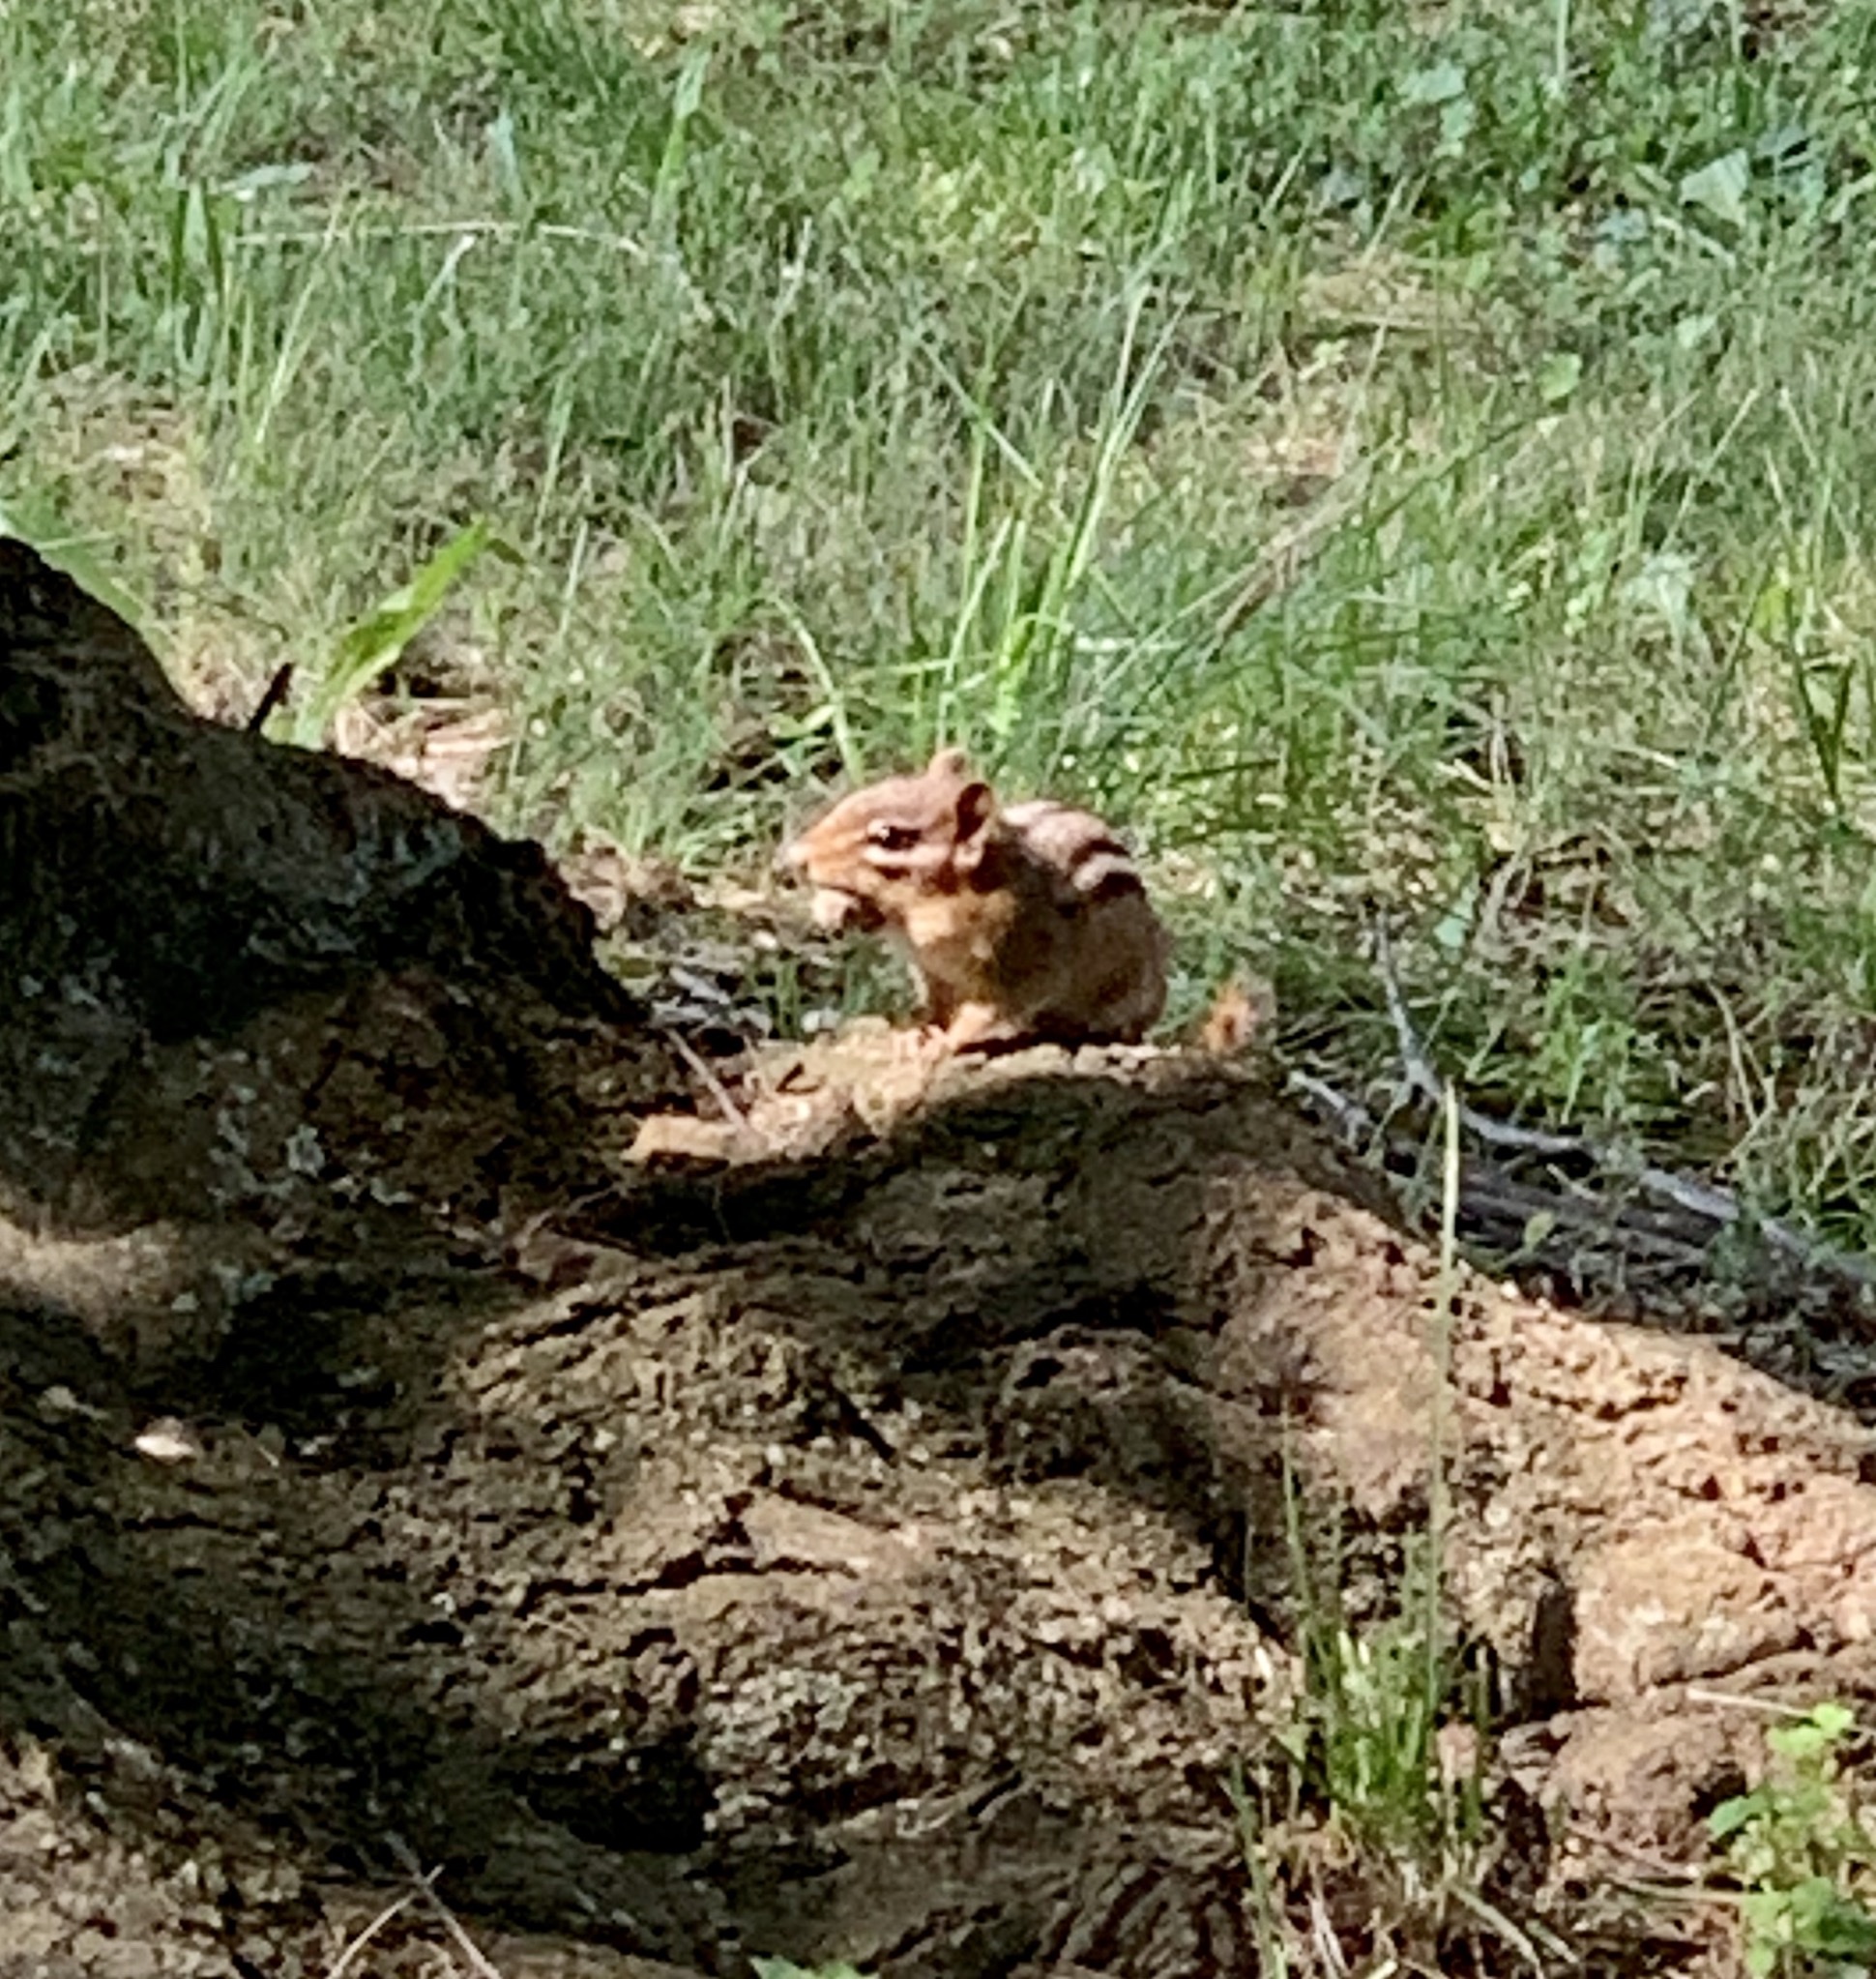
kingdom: Animalia
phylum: Chordata
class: Mammalia
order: Rodentia
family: Sciuridae
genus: Tamias
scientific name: Tamias striatus
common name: Eastern chipmunk
